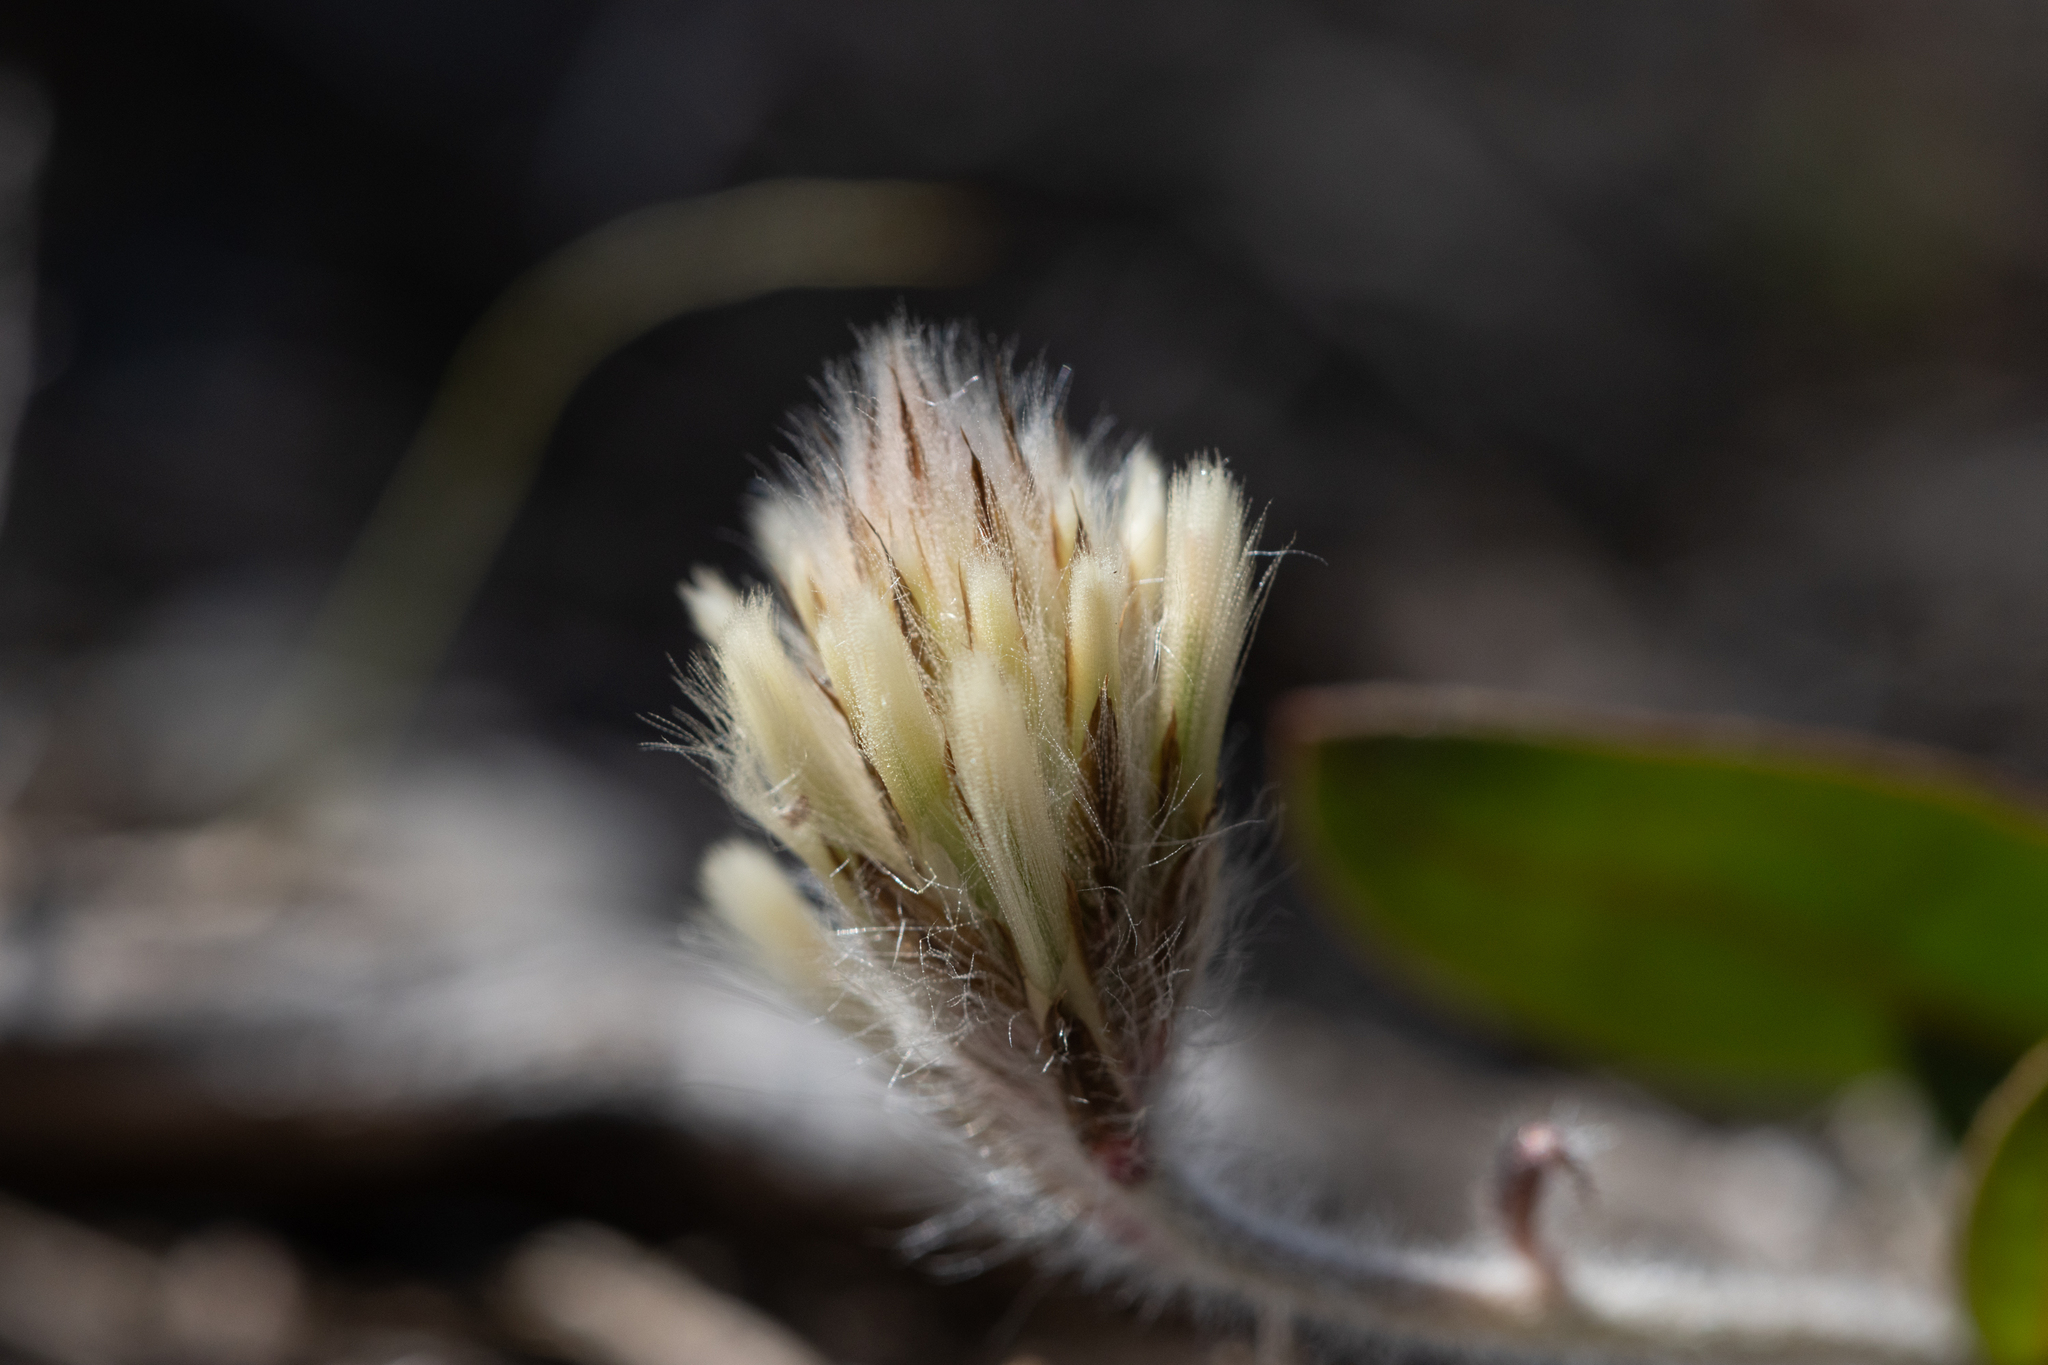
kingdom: Plantae
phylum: Tracheophyta
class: Magnoliopsida
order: Caryophyllales
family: Amaranthaceae
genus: Ptilotus
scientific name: Ptilotus seminudus
